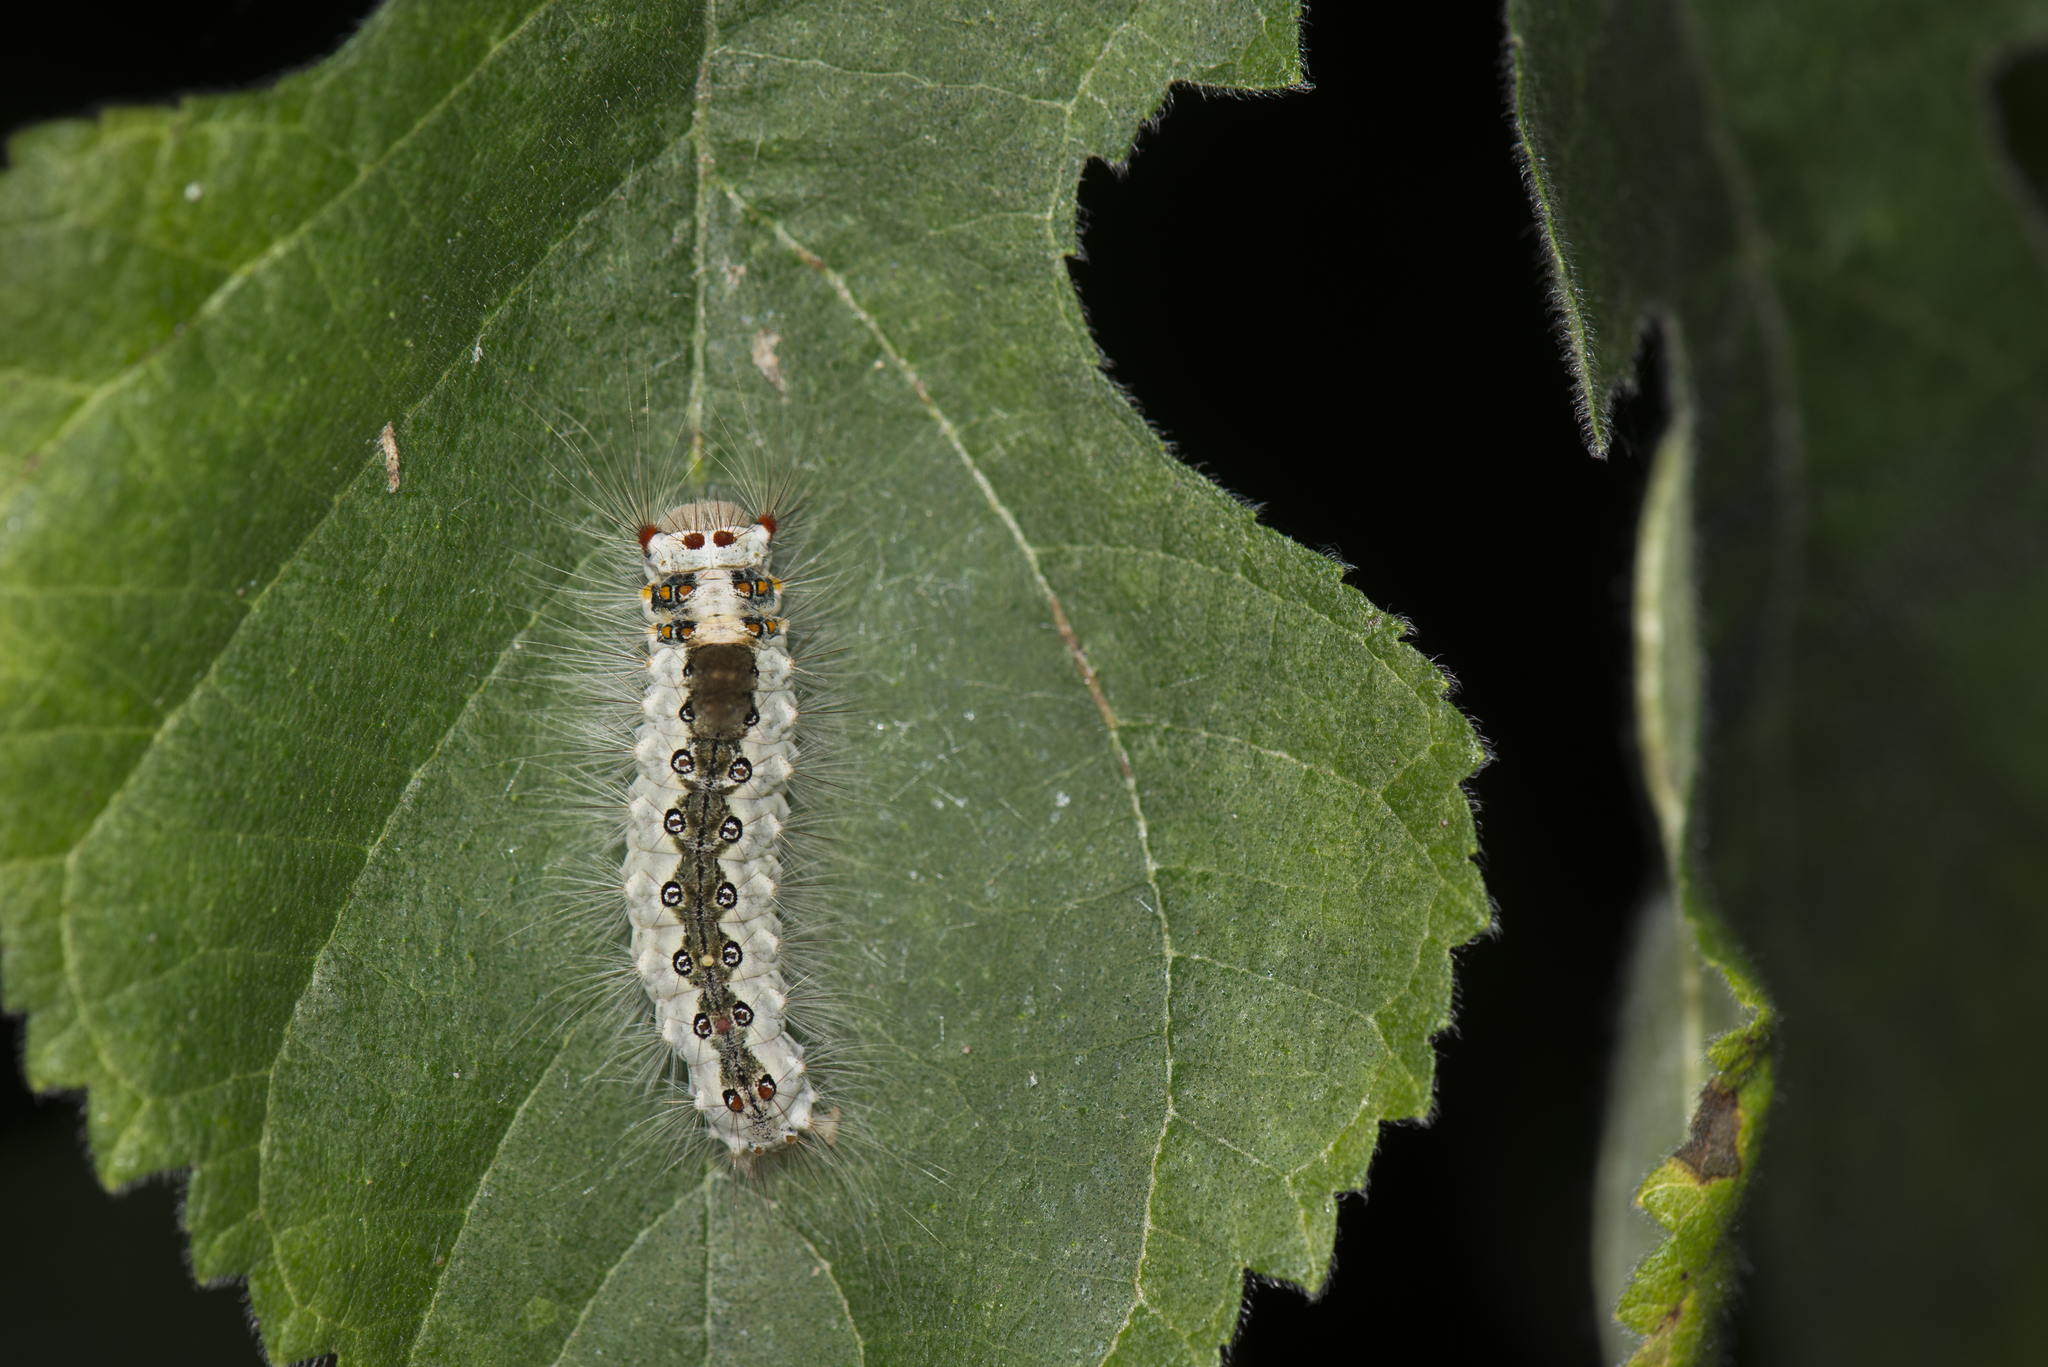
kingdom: Animalia
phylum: Arthropoda
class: Insecta
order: Lepidoptera
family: Erebidae
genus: Perina
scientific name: Perina nuda
